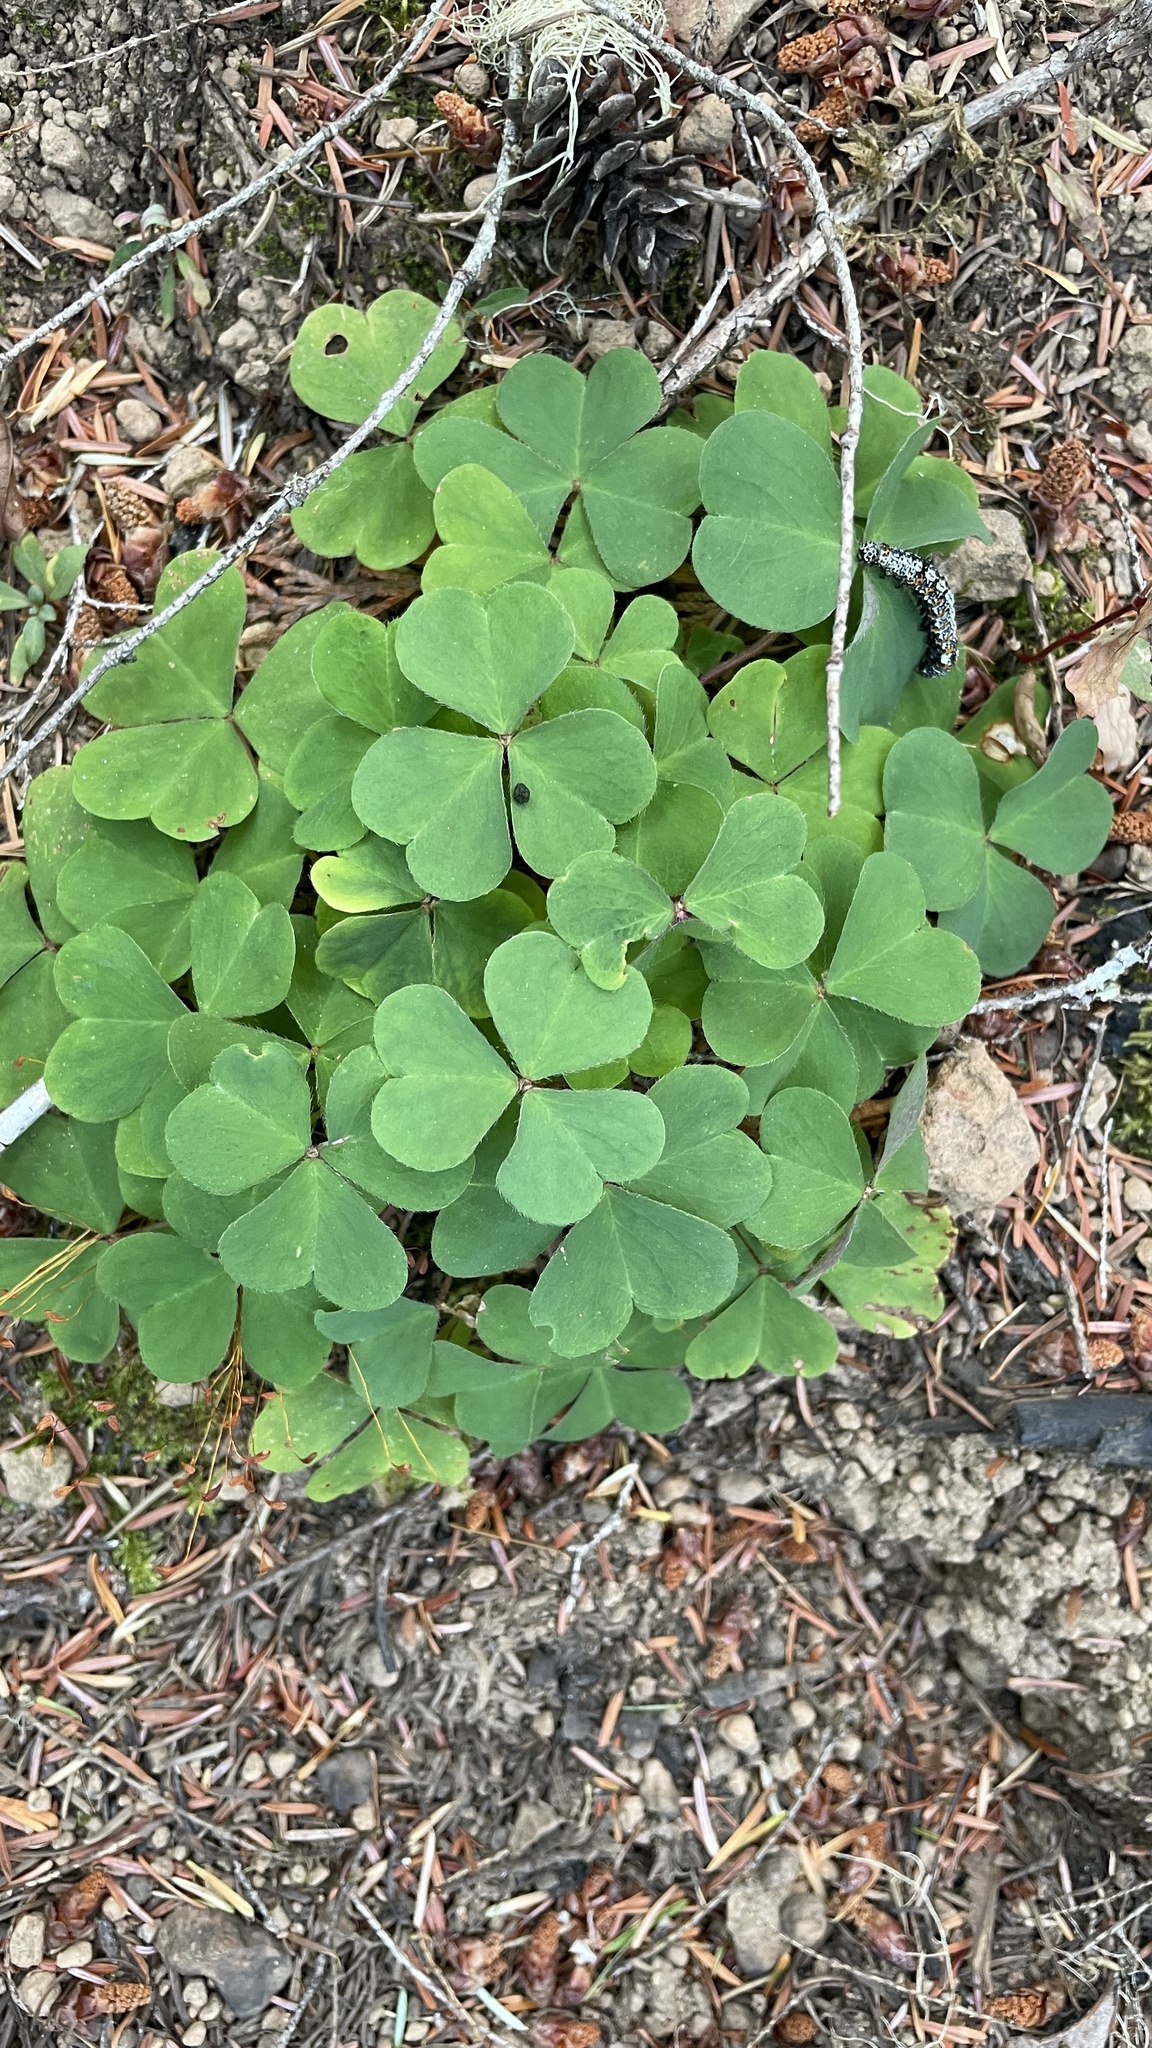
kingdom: Plantae
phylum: Tracheophyta
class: Magnoliopsida
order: Oxalidales
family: Oxalidaceae
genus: Oxalis
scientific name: Oxalis oregana
